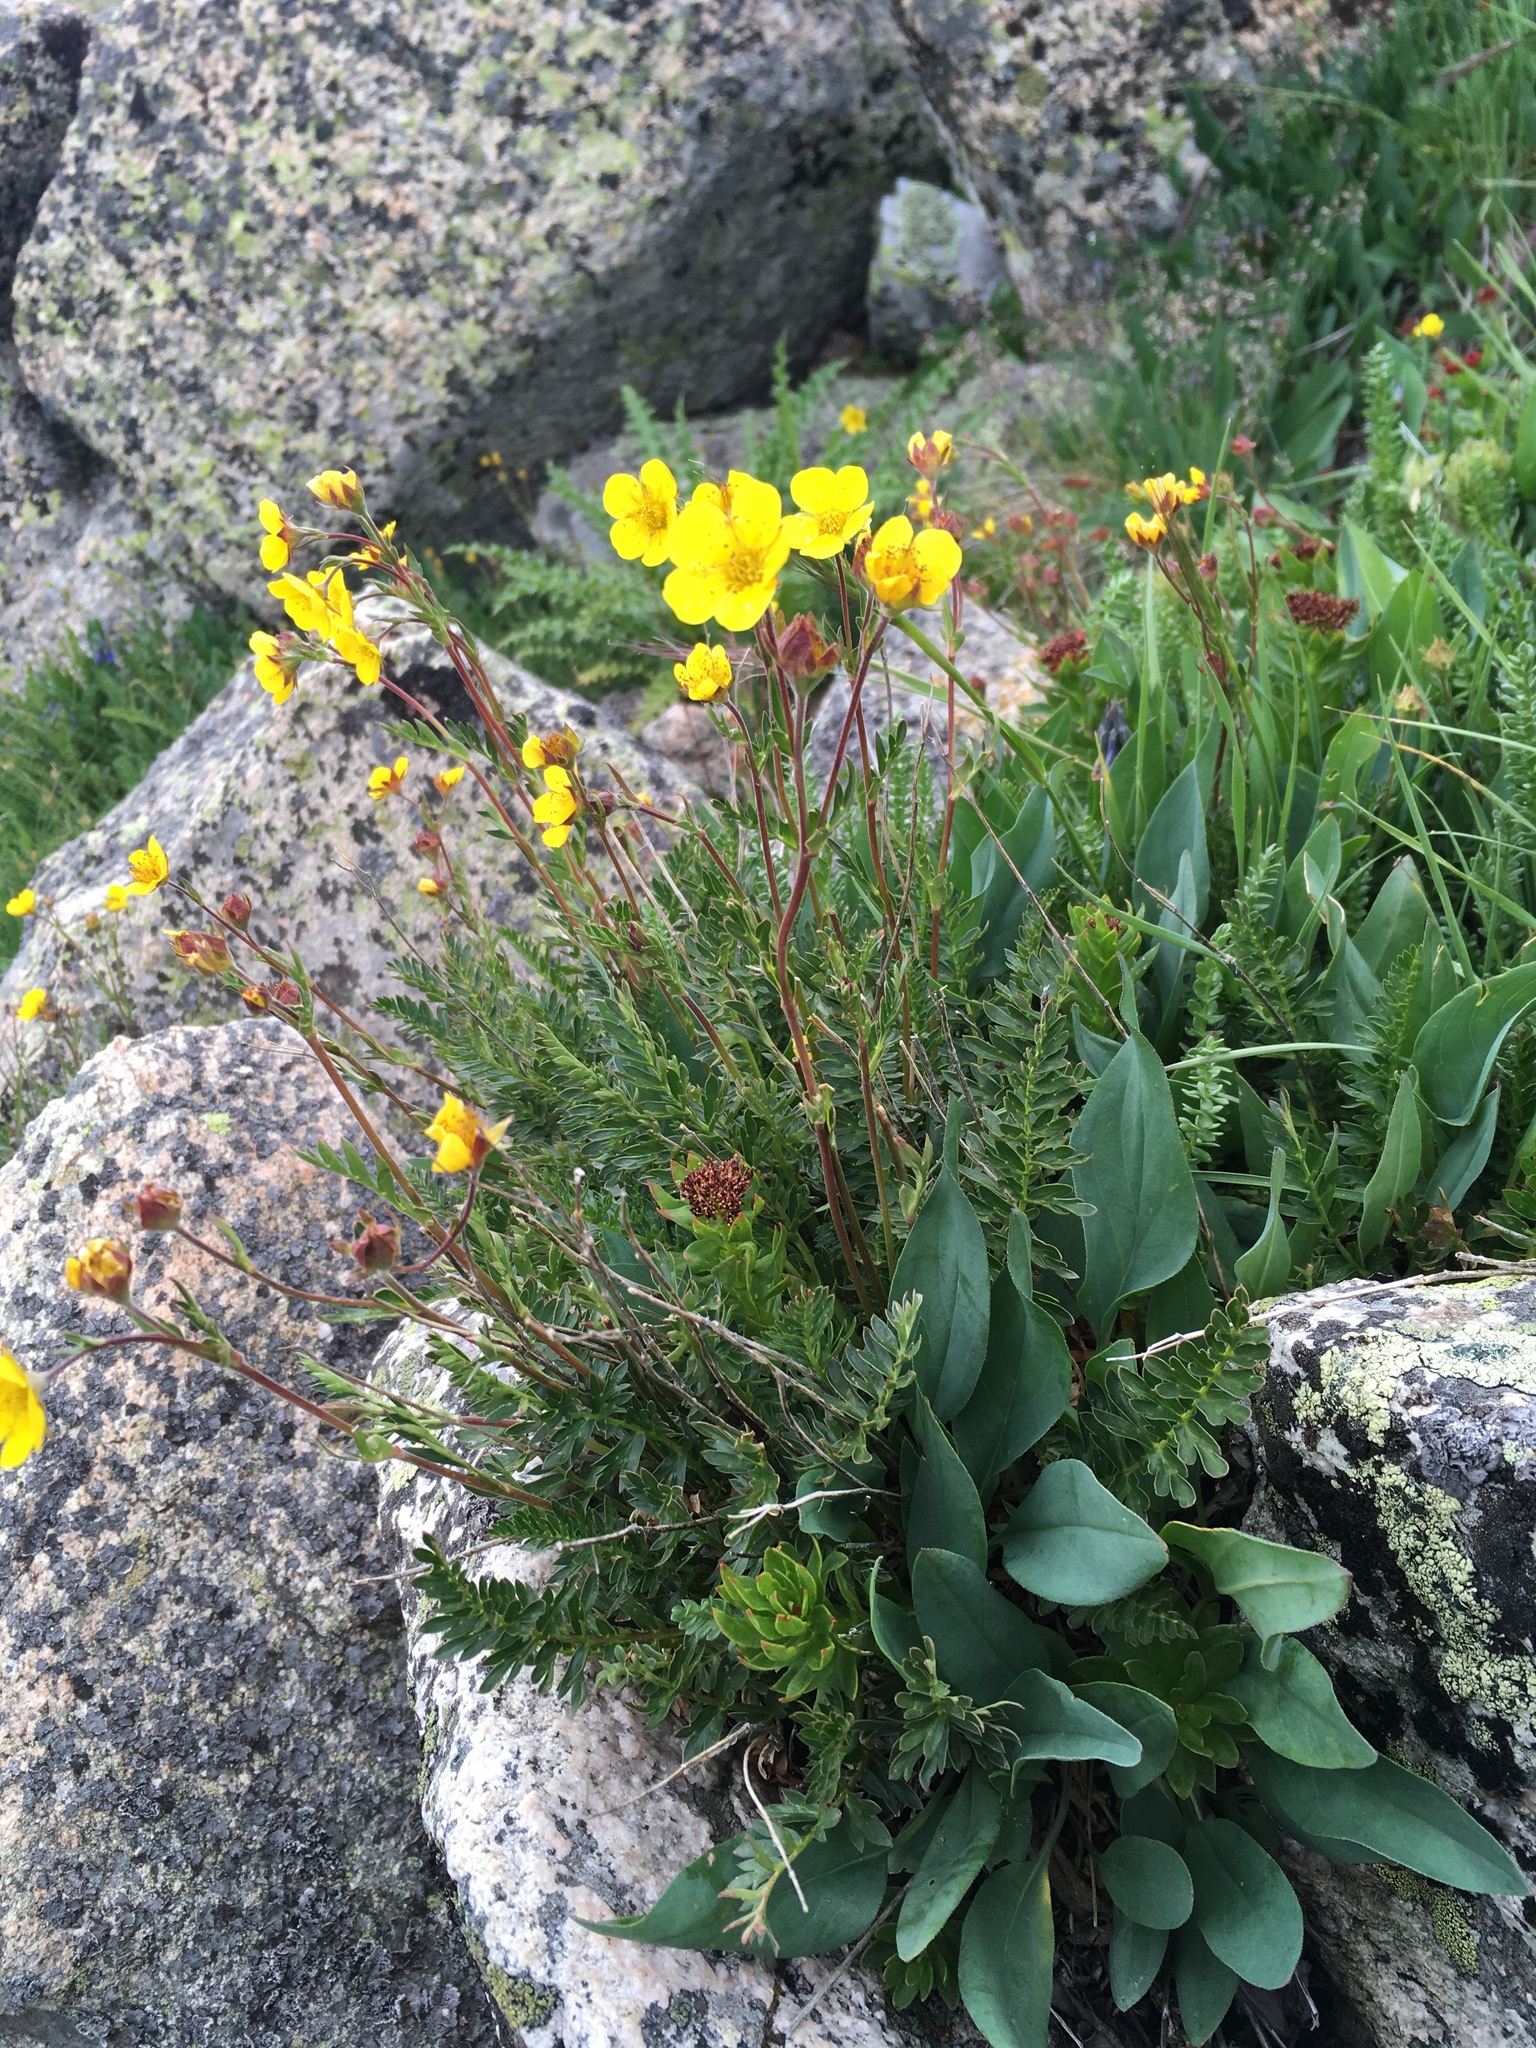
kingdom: Plantae
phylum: Tracheophyta
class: Magnoliopsida
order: Rosales
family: Rosaceae
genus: Geum
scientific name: Geum rossii
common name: Alpine avens
